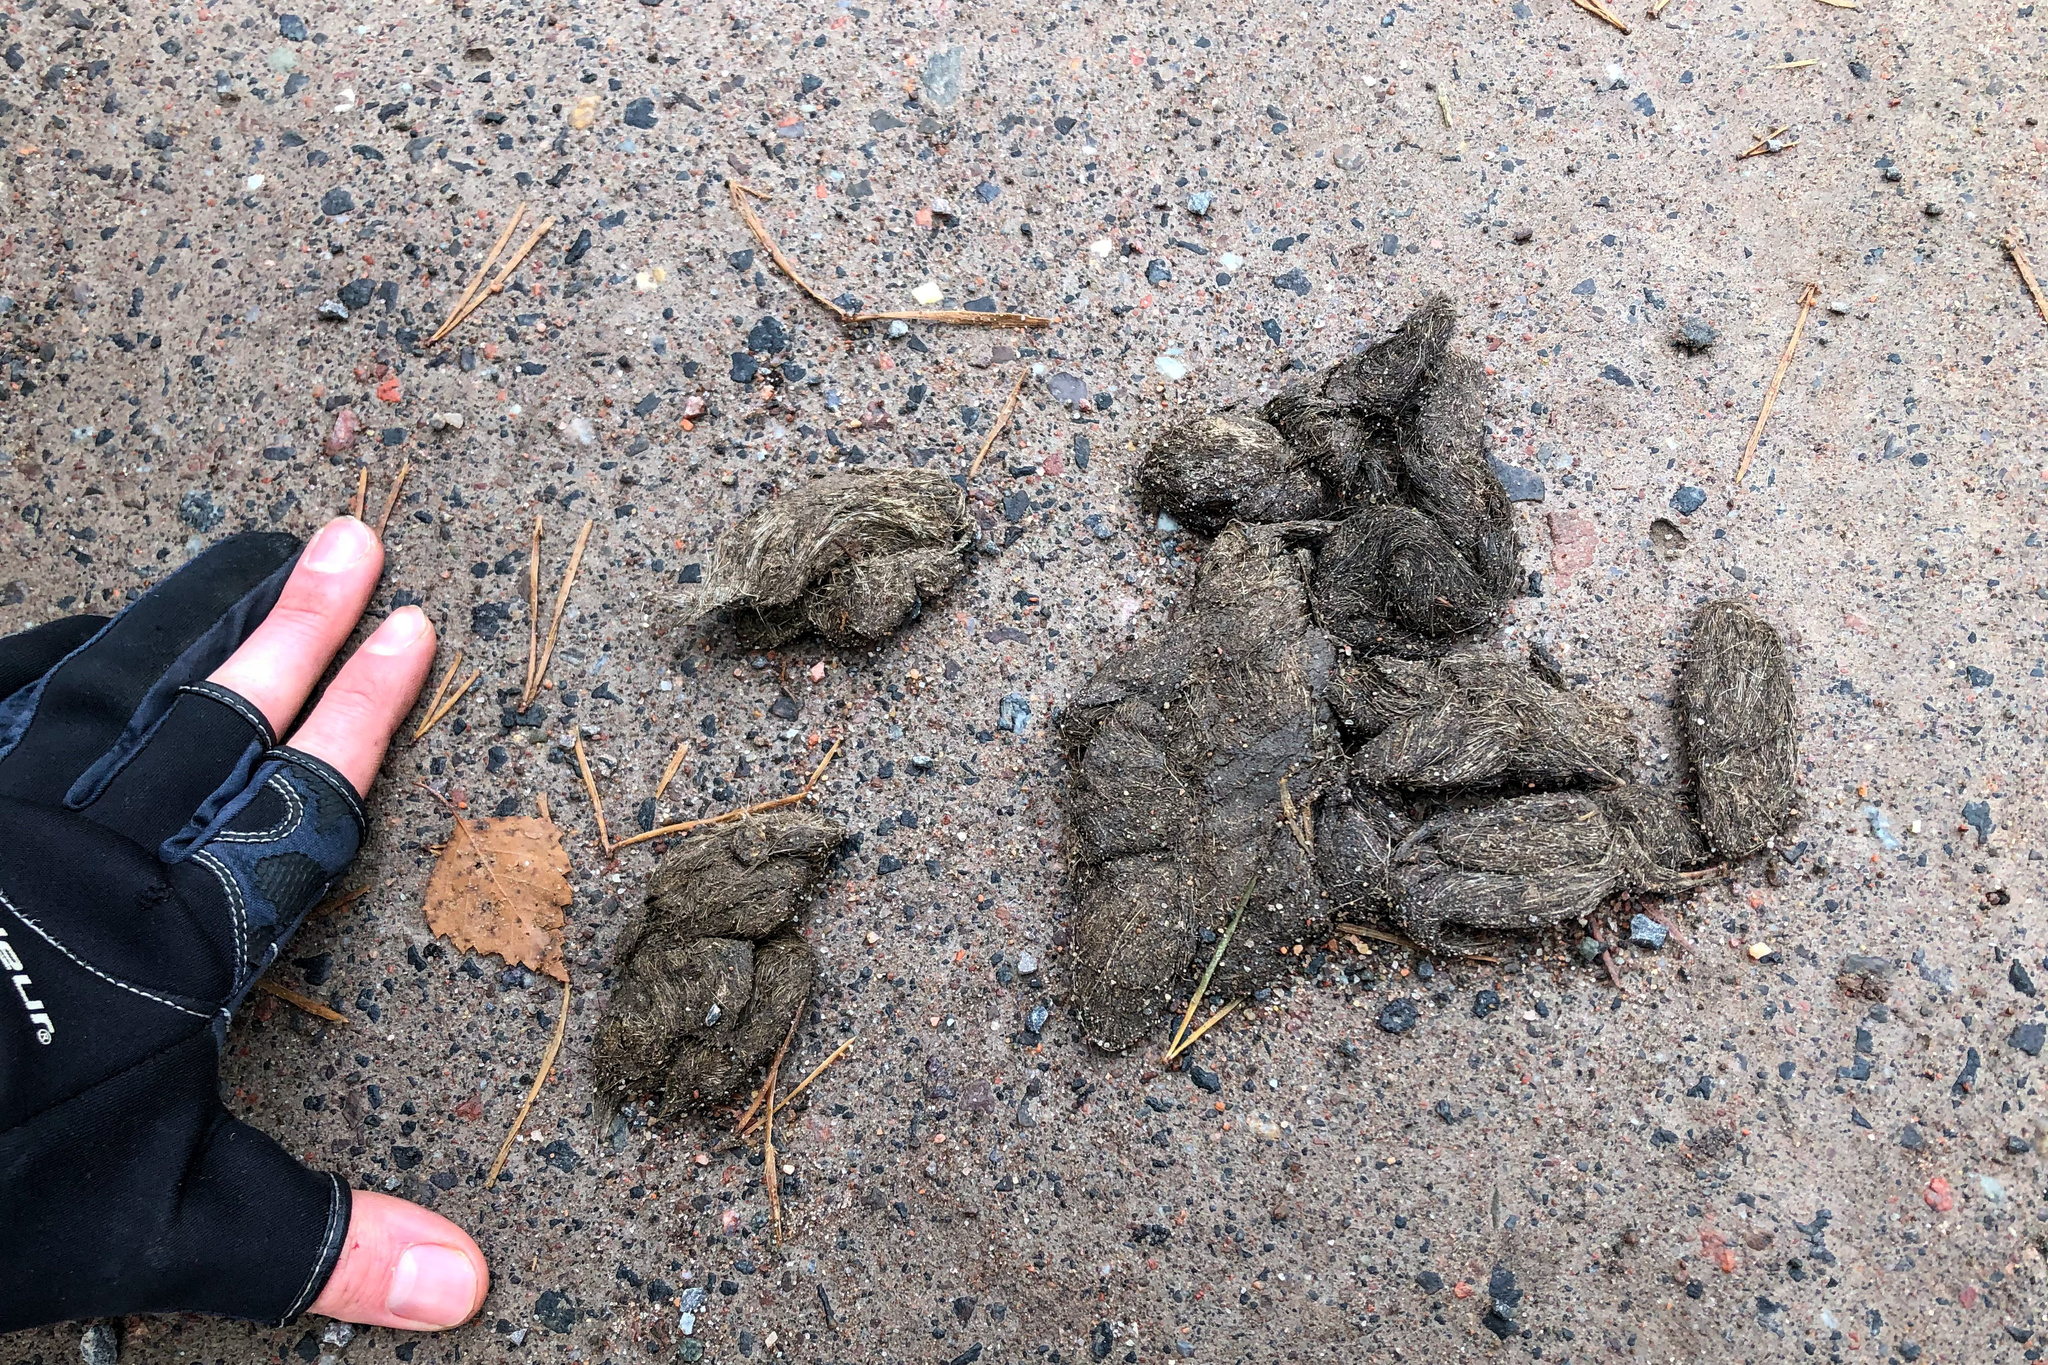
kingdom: Animalia
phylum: Chordata
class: Mammalia
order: Carnivora
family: Canidae
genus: Canis
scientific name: Canis lupus
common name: Gray wolf
